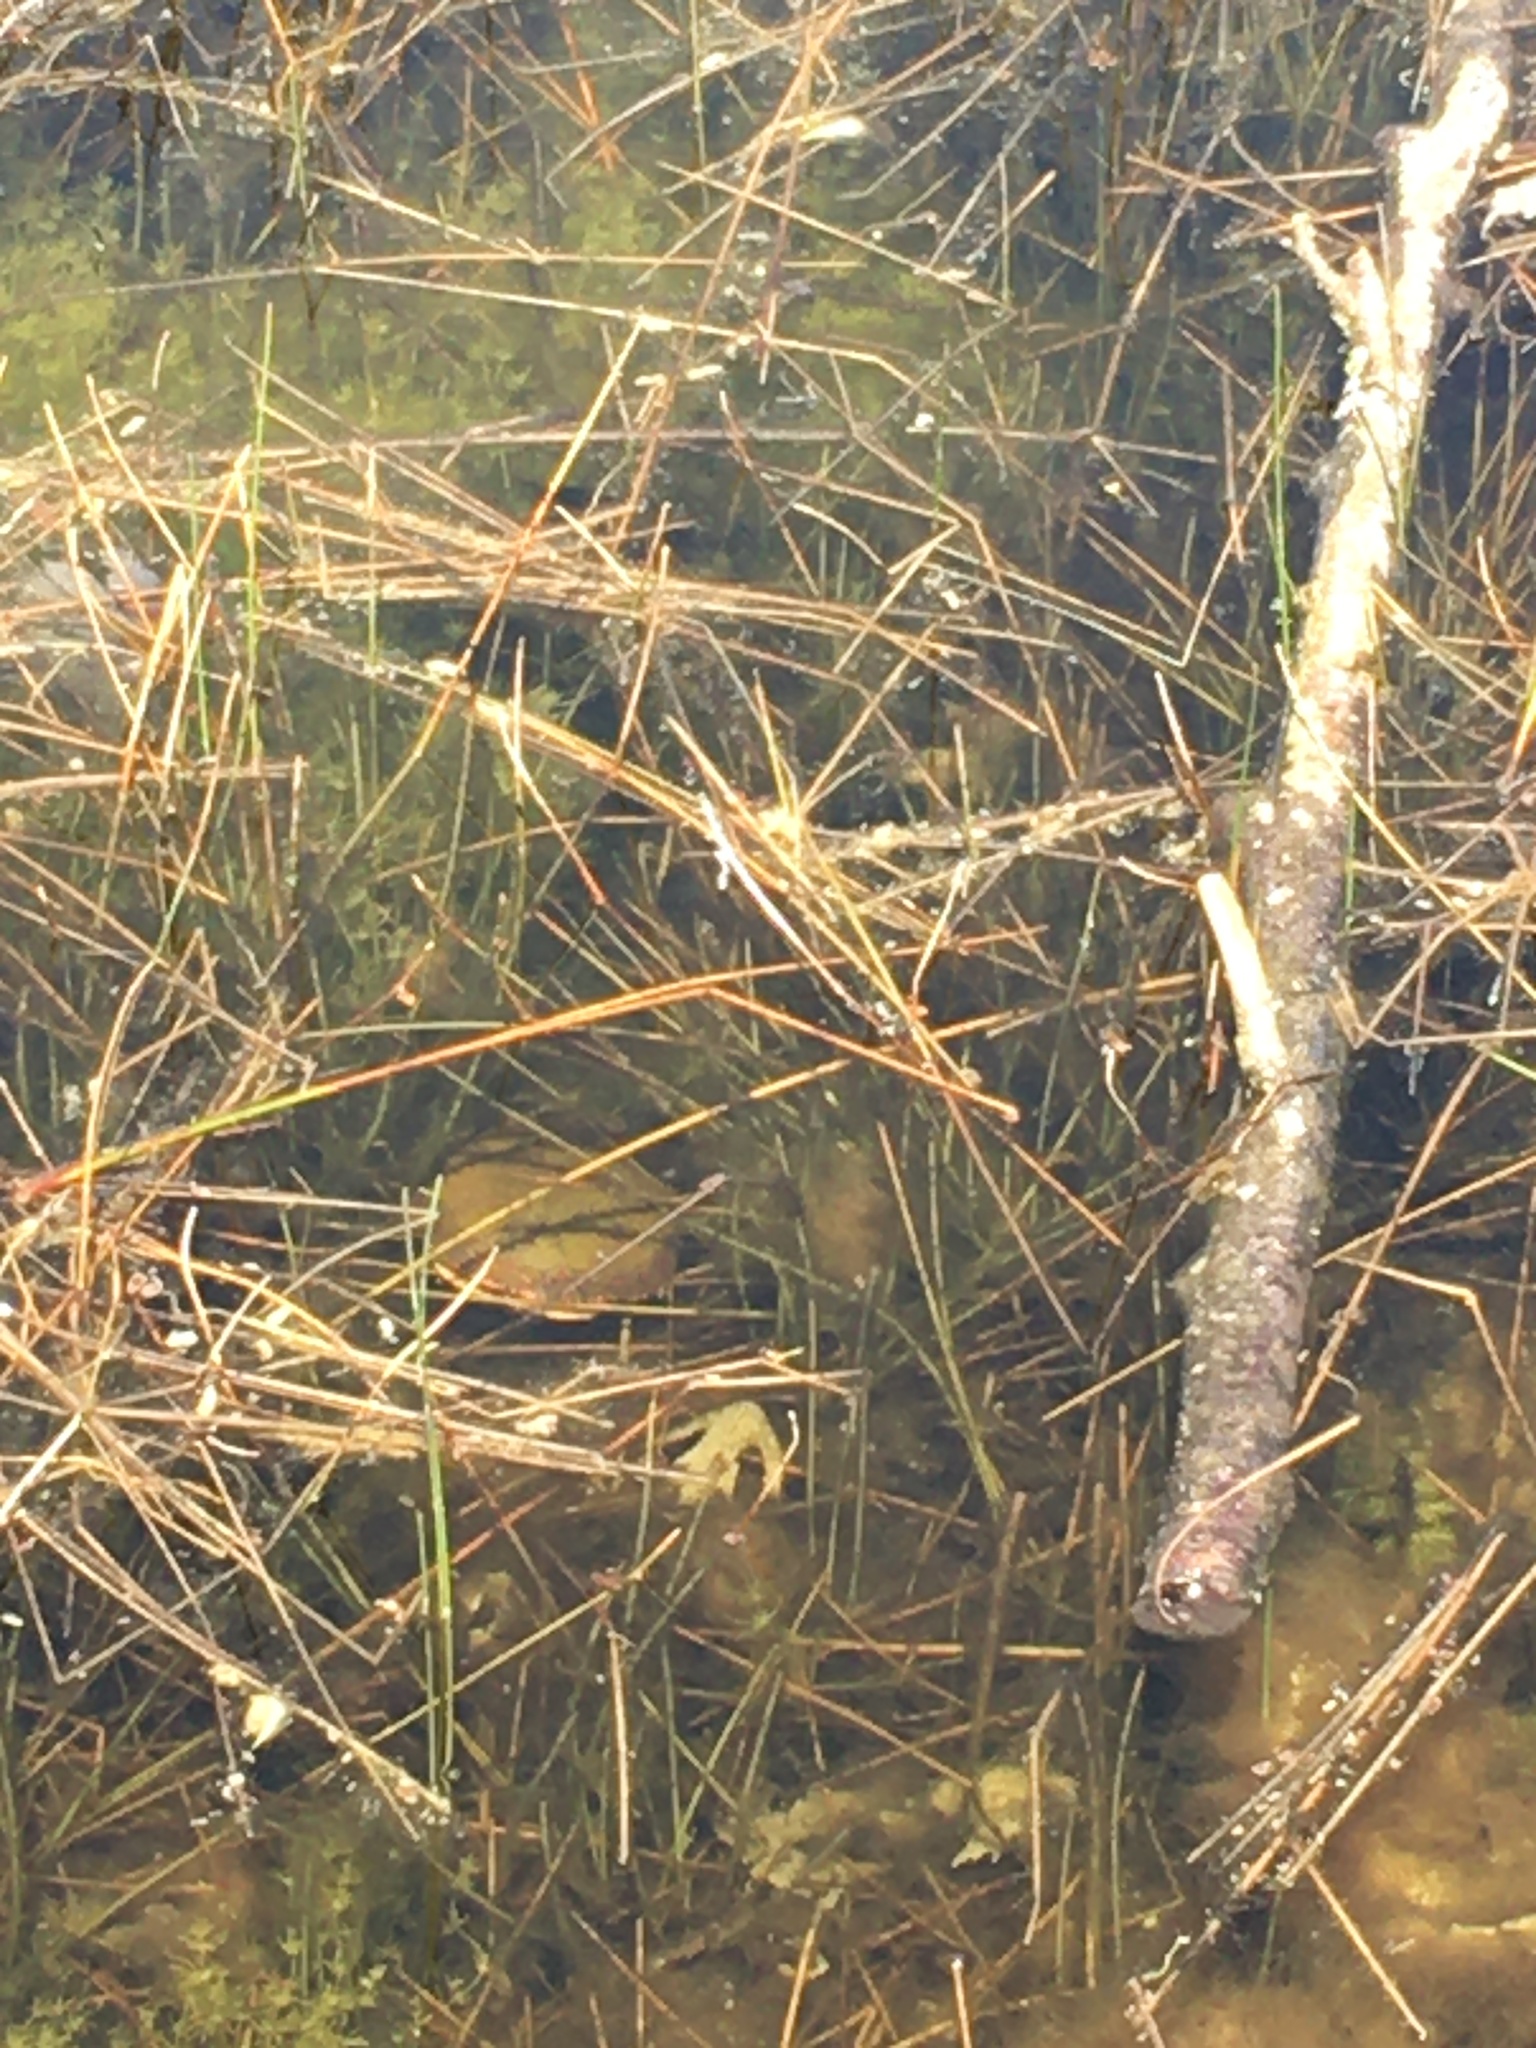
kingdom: Animalia
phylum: Chordata
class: Testudines
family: Emydidae
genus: Chrysemys
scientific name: Chrysemys picta
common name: Painted turtle
